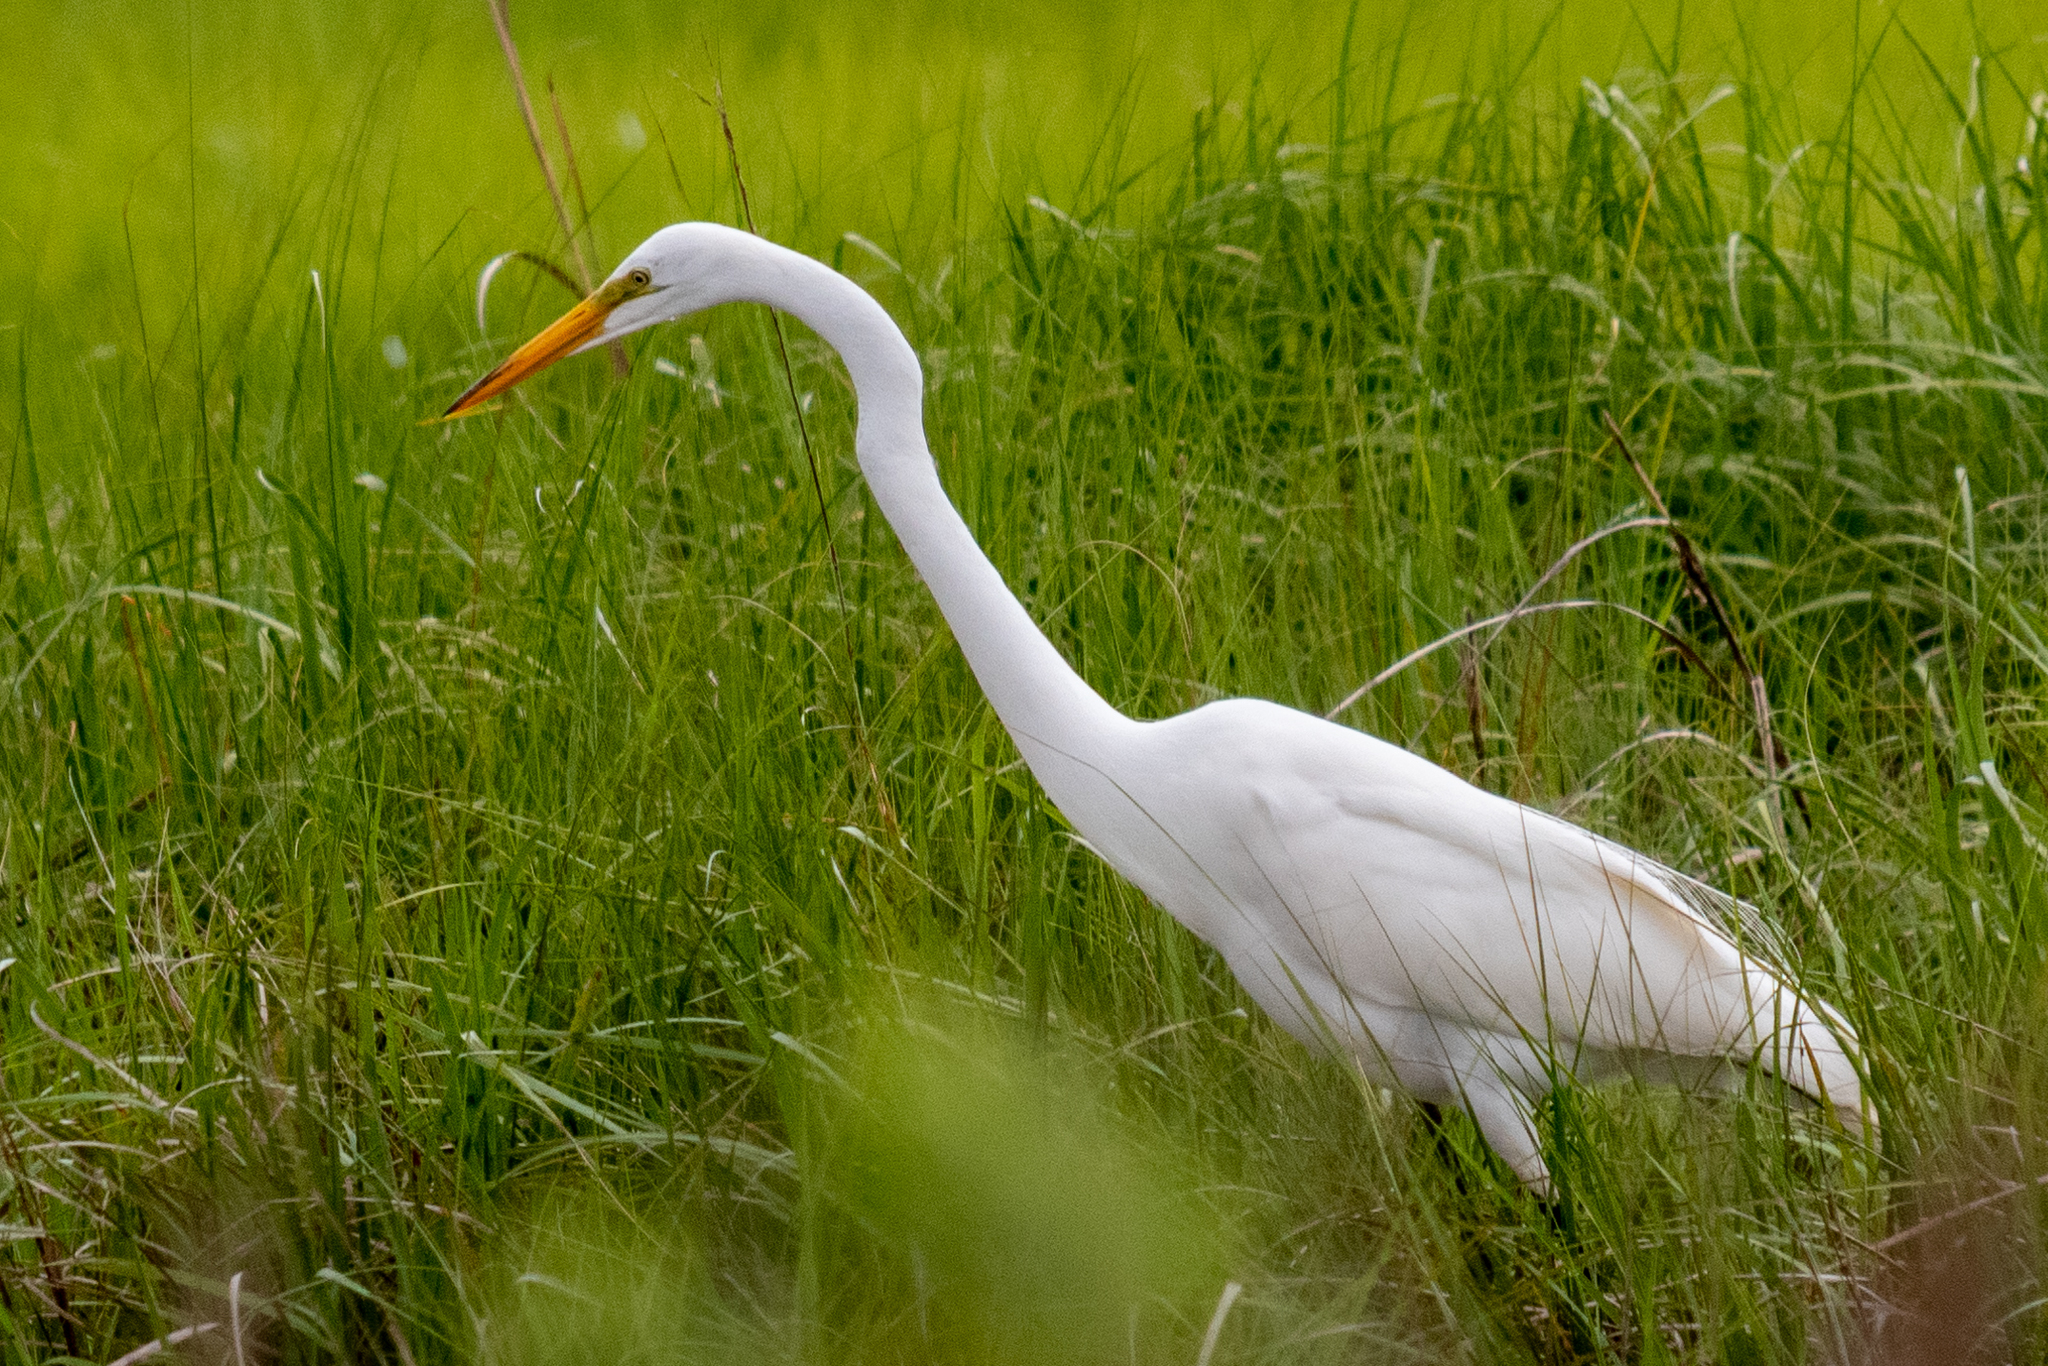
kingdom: Animalia
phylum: Chordata
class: Aves
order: Pelecaniformes
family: Ardeidae
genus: Ardea
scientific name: Ardea alba
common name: Great egret
